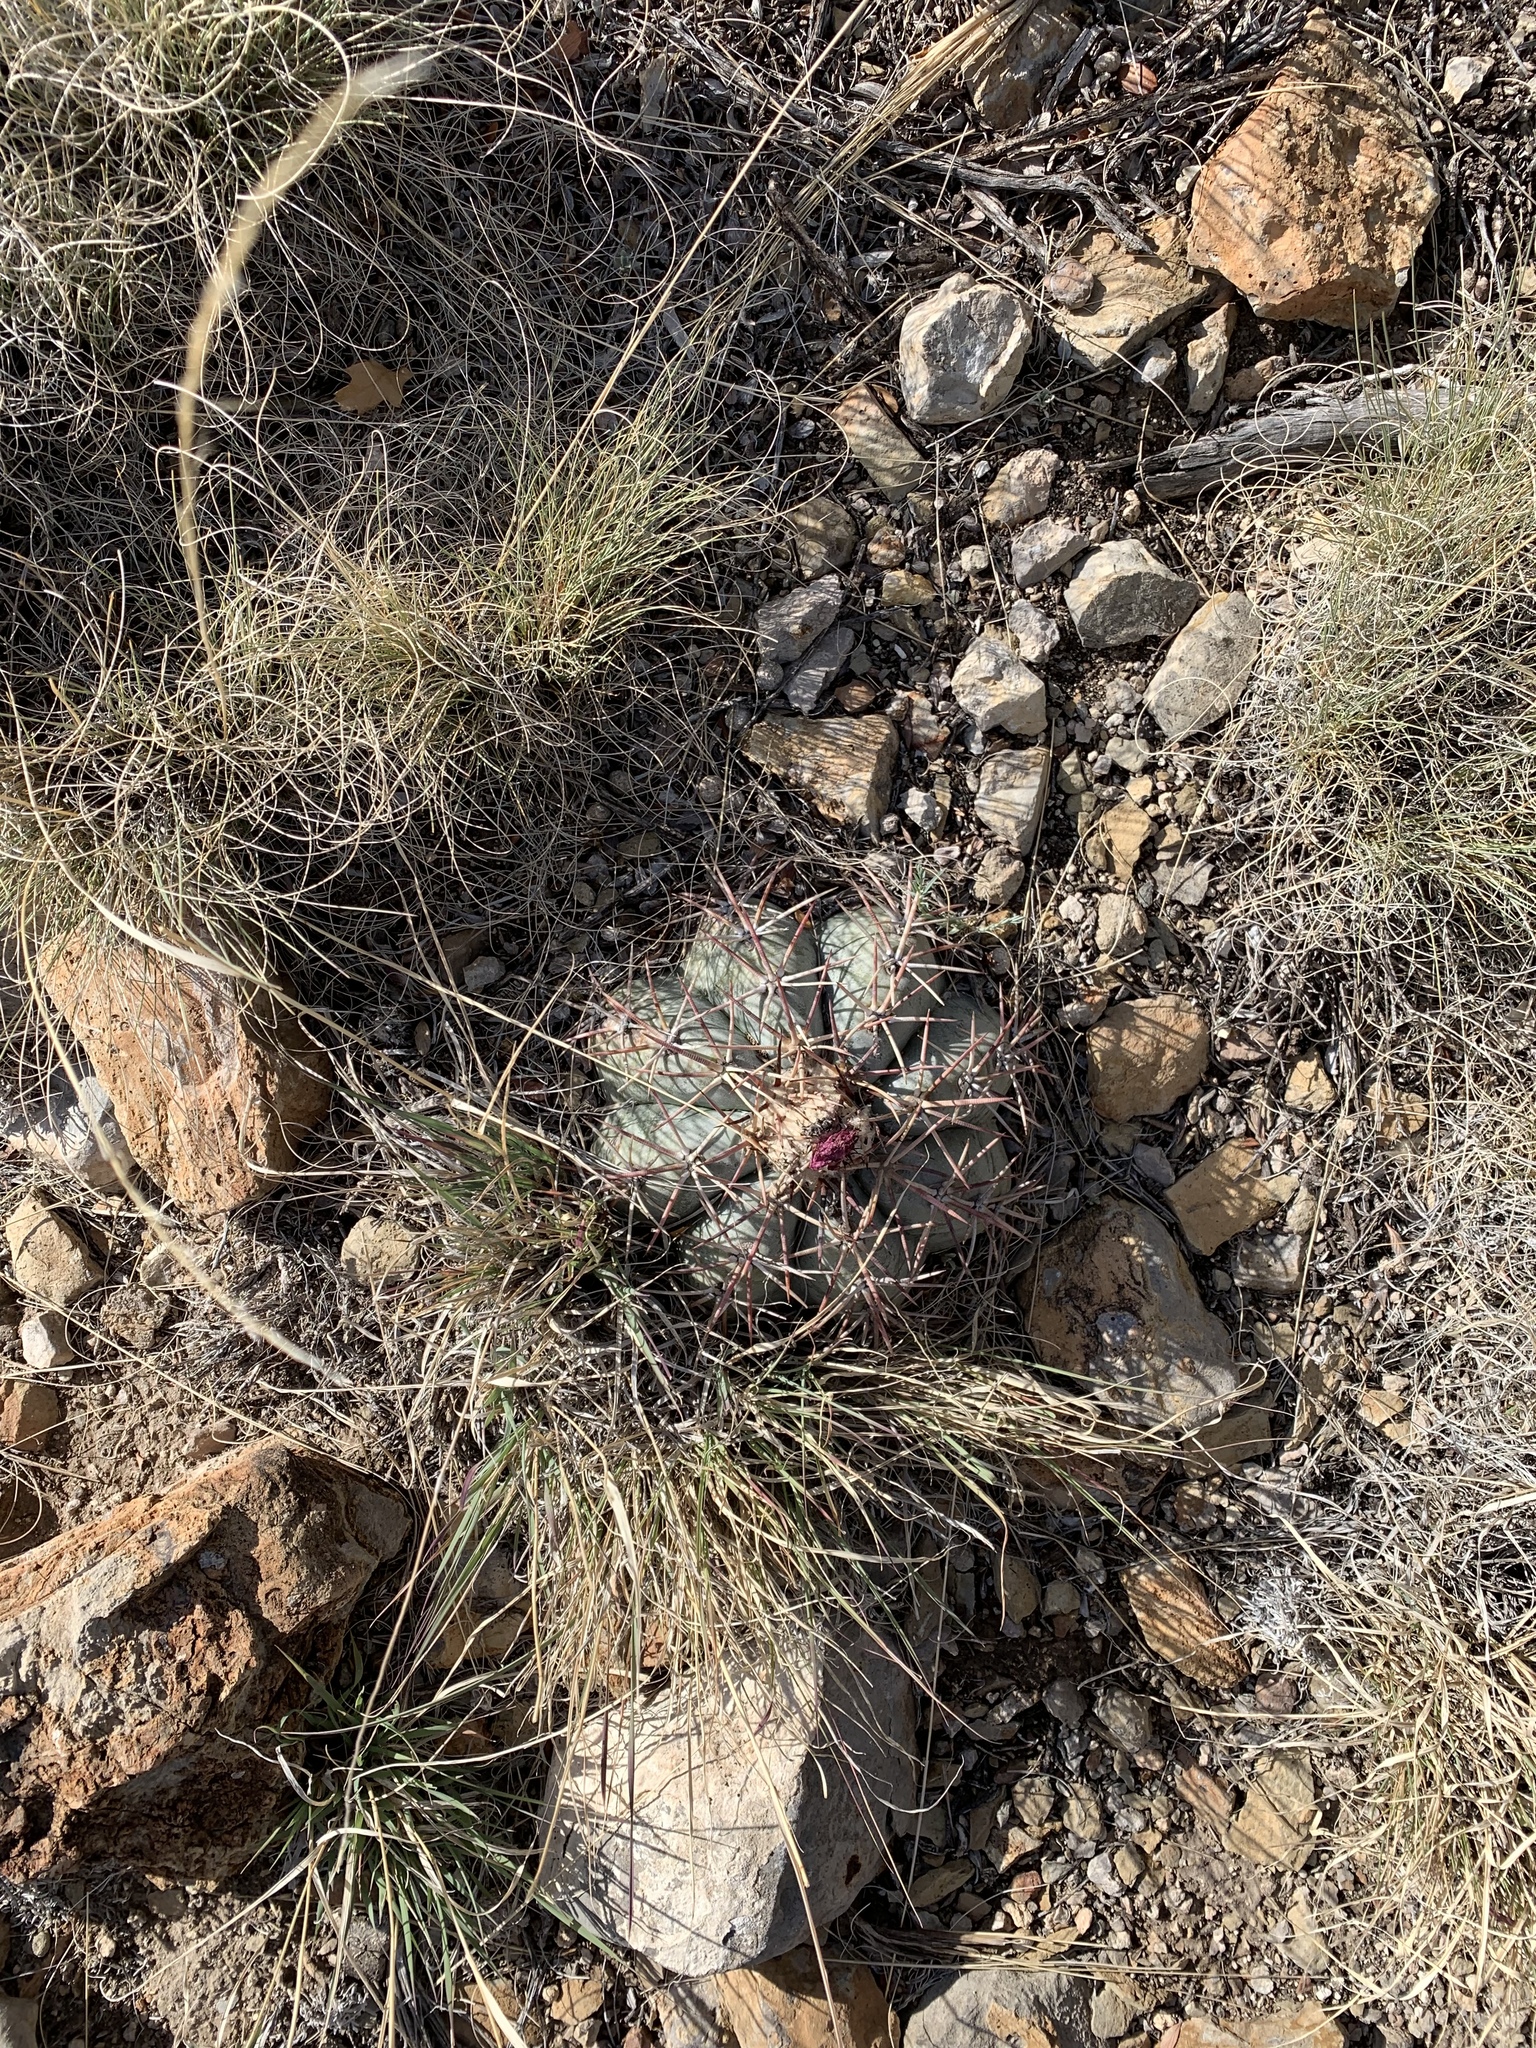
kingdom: Plantae
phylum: Tracheophyta
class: Magnoliopsida
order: Caryophyllales
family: Cactaceae
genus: Echinocactus
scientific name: Echinocactus horizonthalonius
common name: Devilshead
